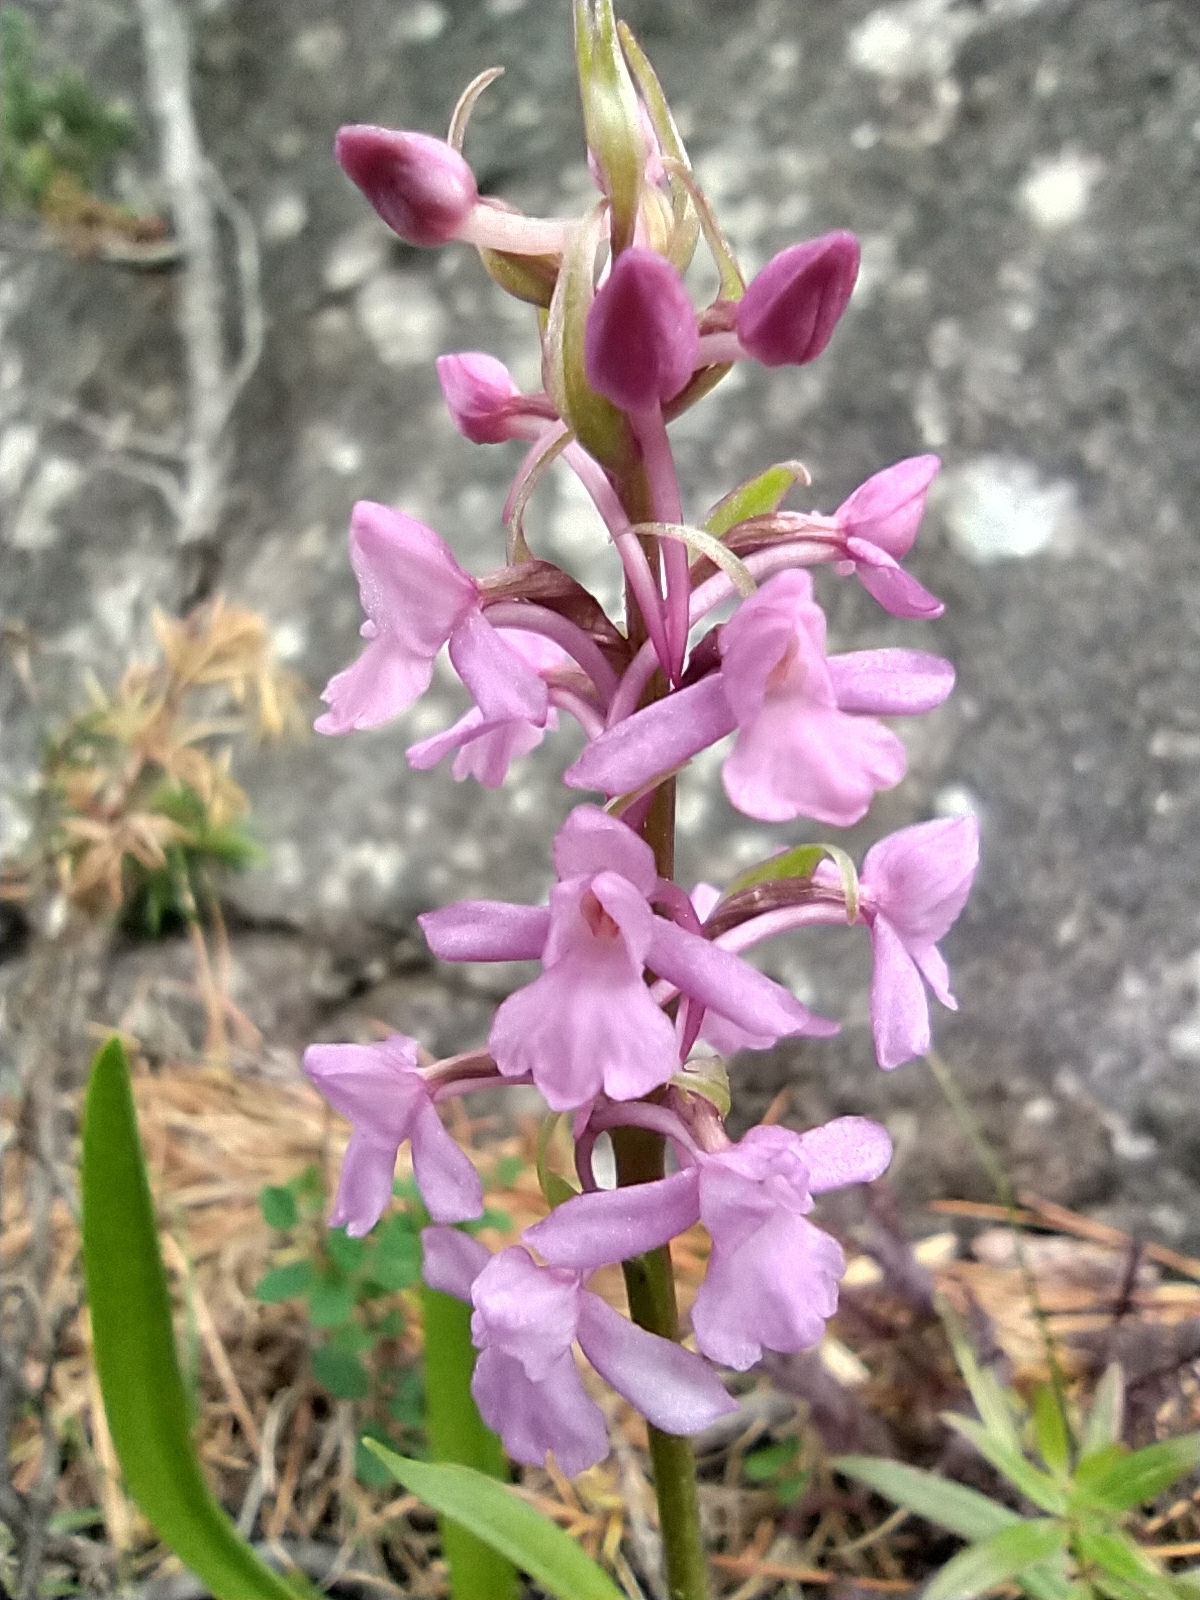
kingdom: Plantae
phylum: Tracheophyta
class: Liliopsida
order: Asparagales
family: Orchidaceae
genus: Gymnadenia
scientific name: Gymnadenia conopsea
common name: Fragrant orchid
